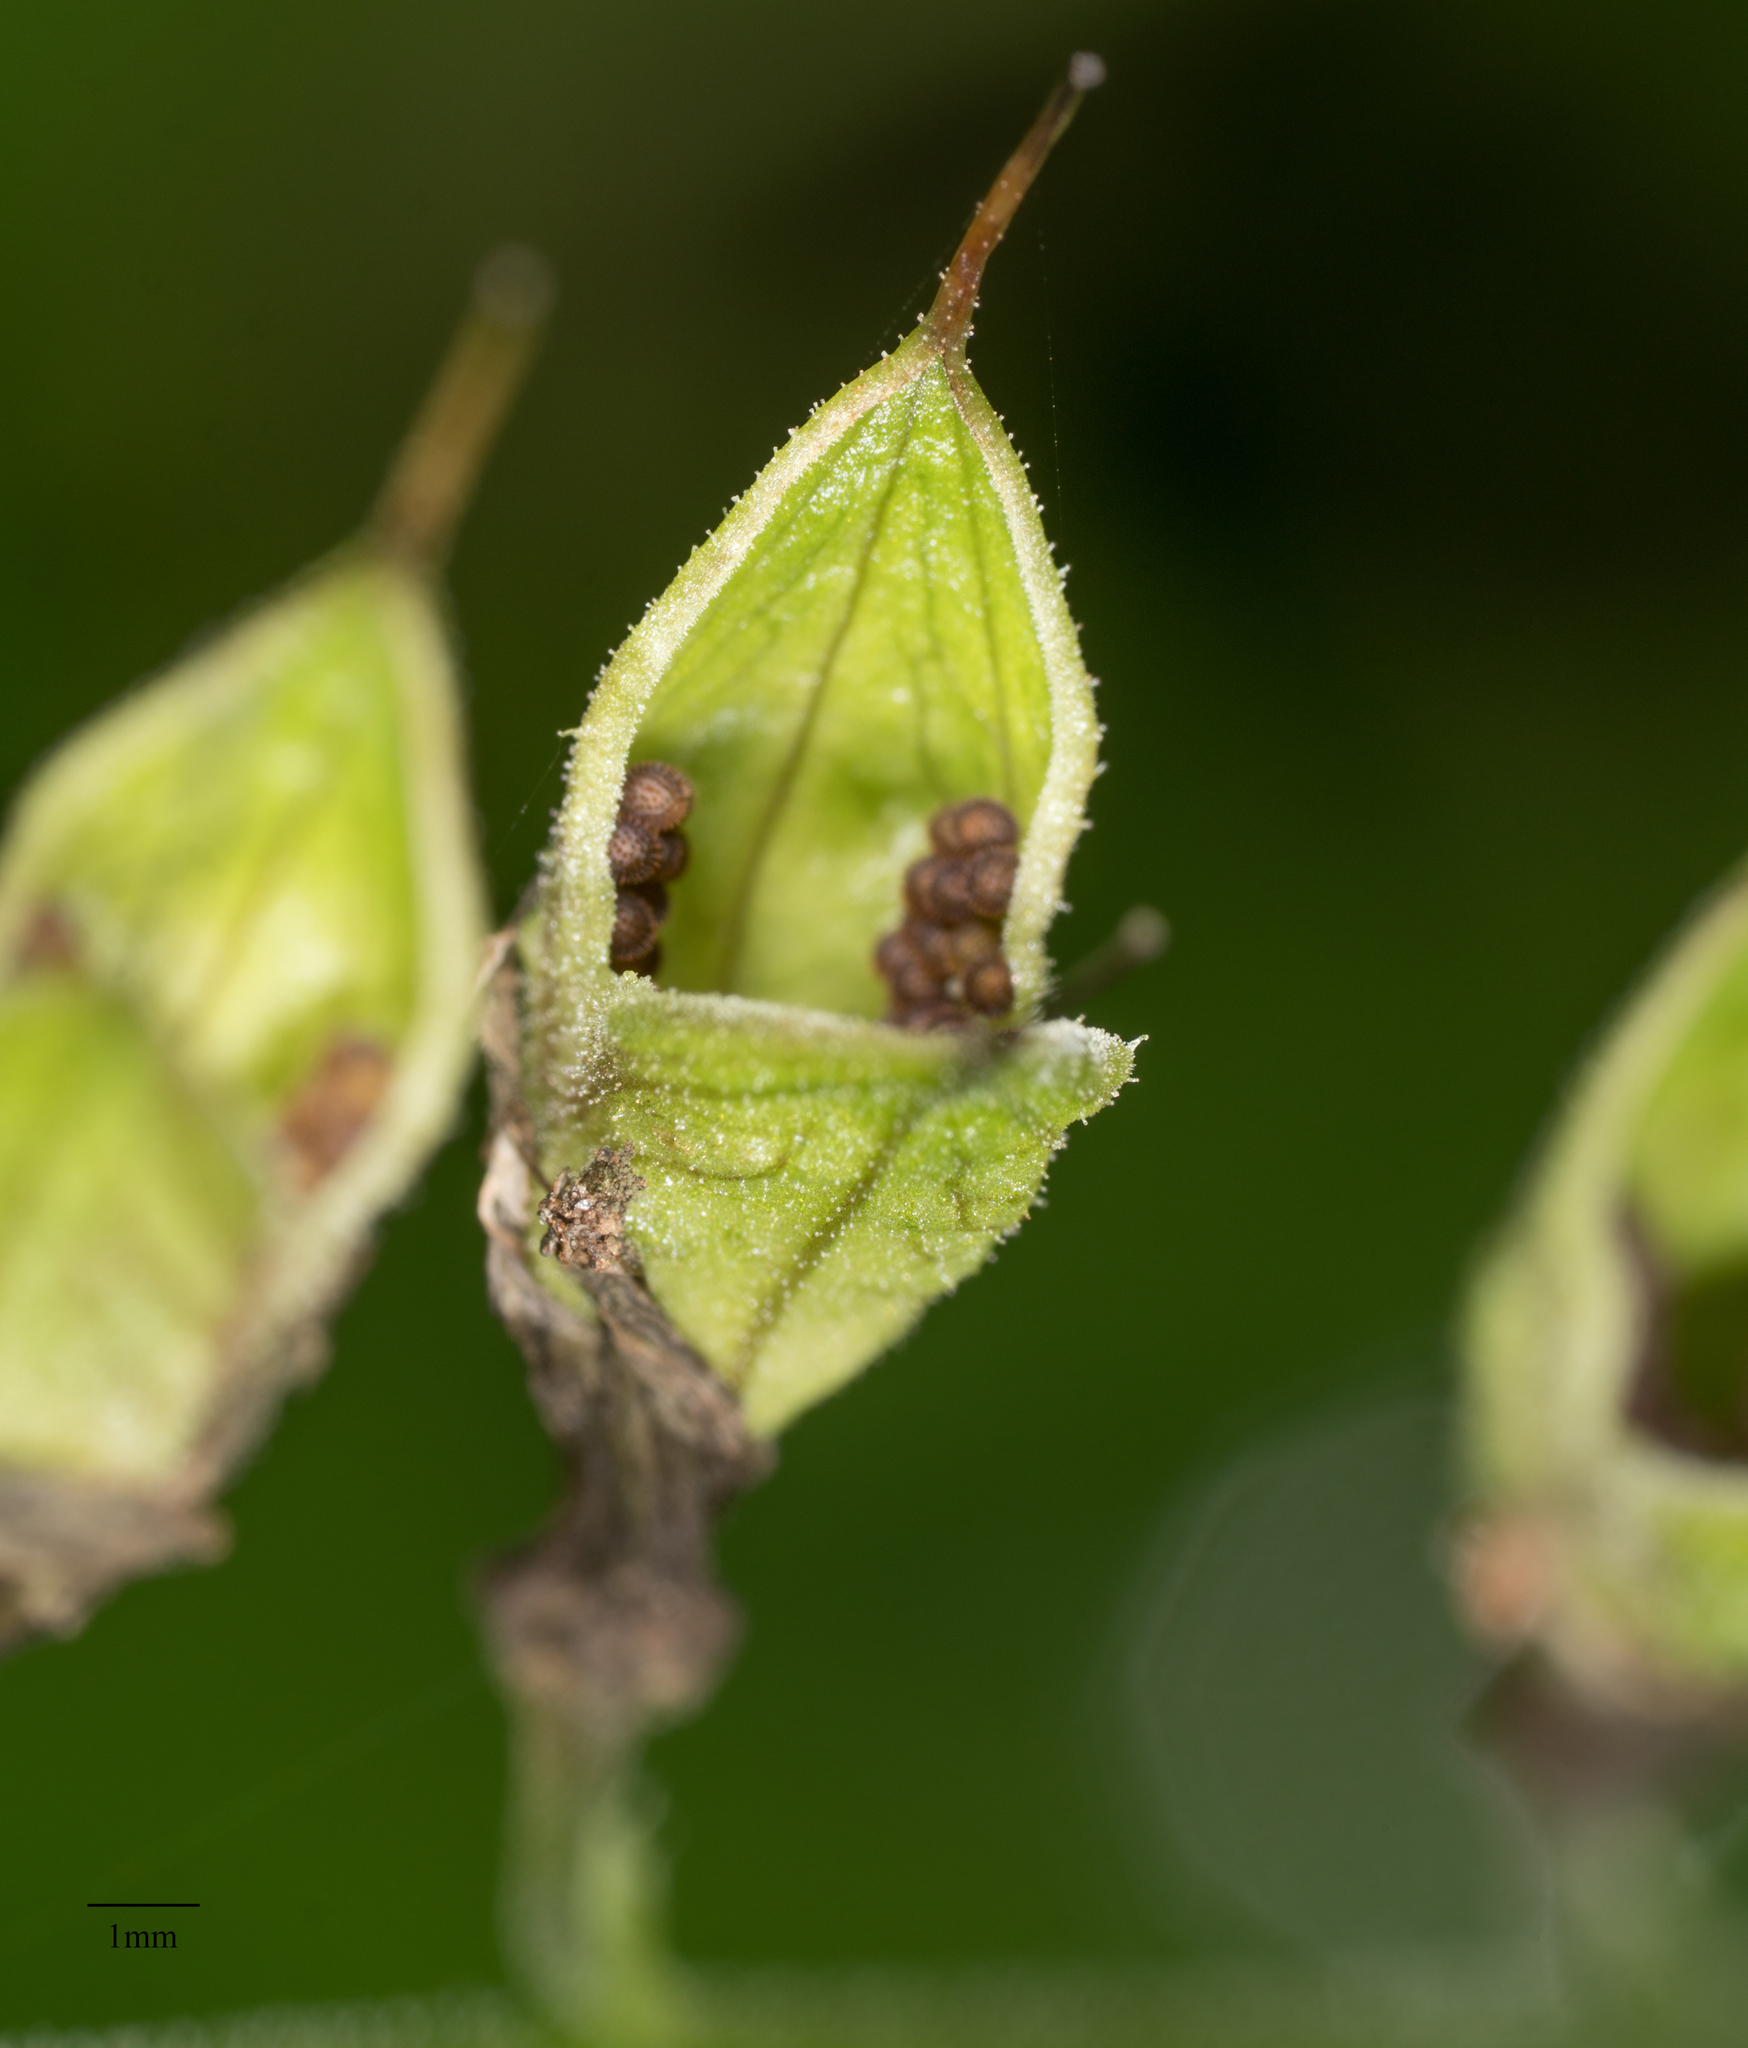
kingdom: Plantae
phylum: Tracheophyta
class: Magnoliopsida
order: Saxifragales
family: Saxifragaceae
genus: Tolmiea
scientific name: Tolmiea menziesii
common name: Pick-a-back-plant
